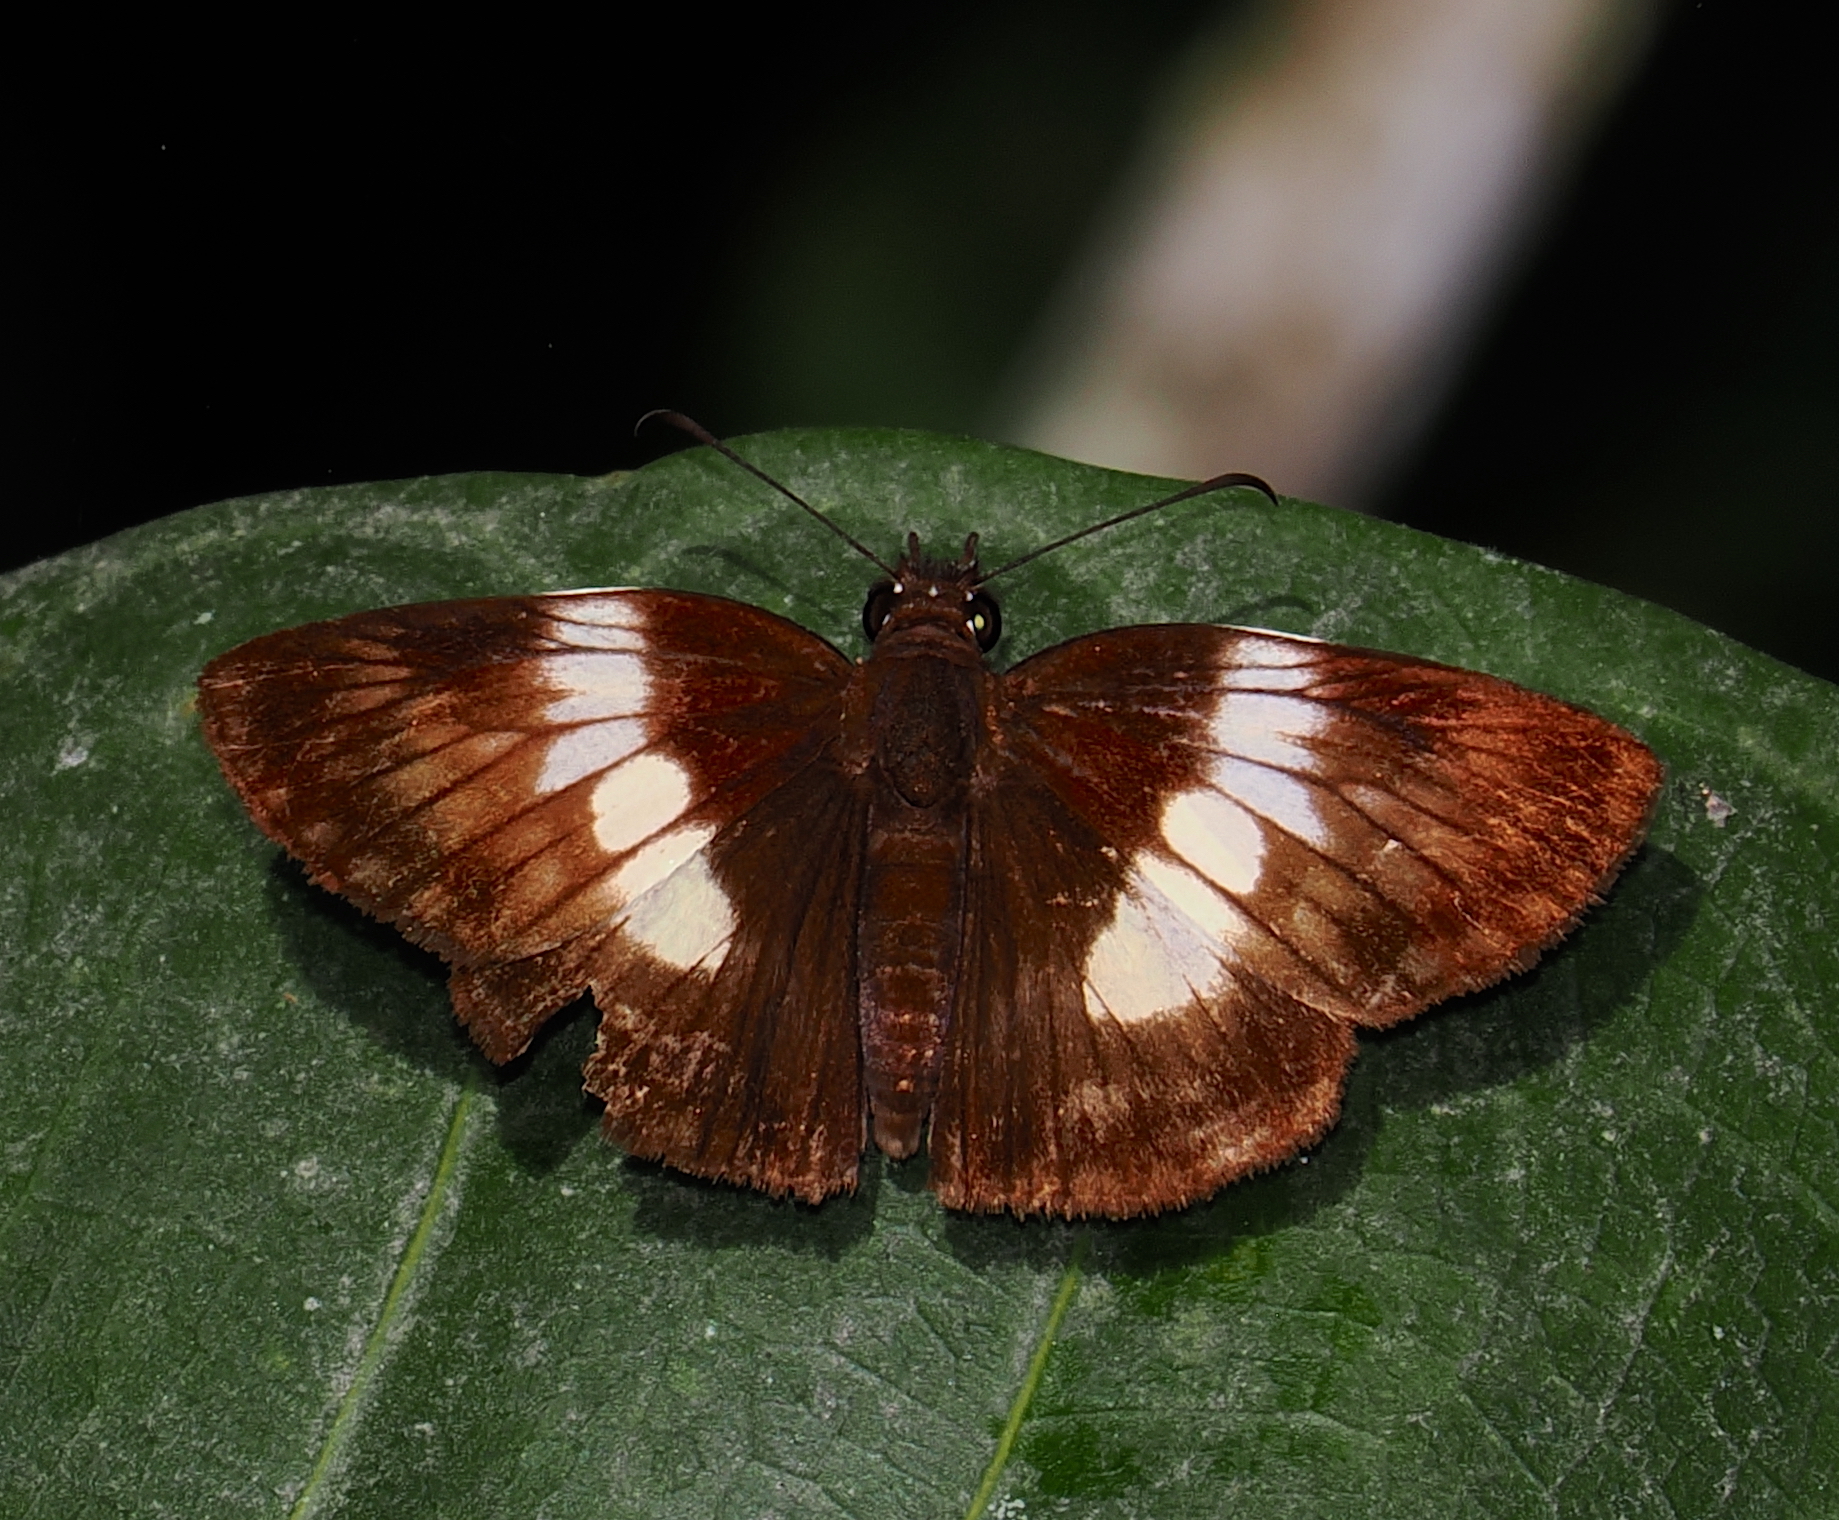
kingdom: Animalia
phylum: Arthropoda
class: Insecta
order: Lepidoptera
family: Hesperiidae
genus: Potamanaxas
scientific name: Potamanaxas thestia
